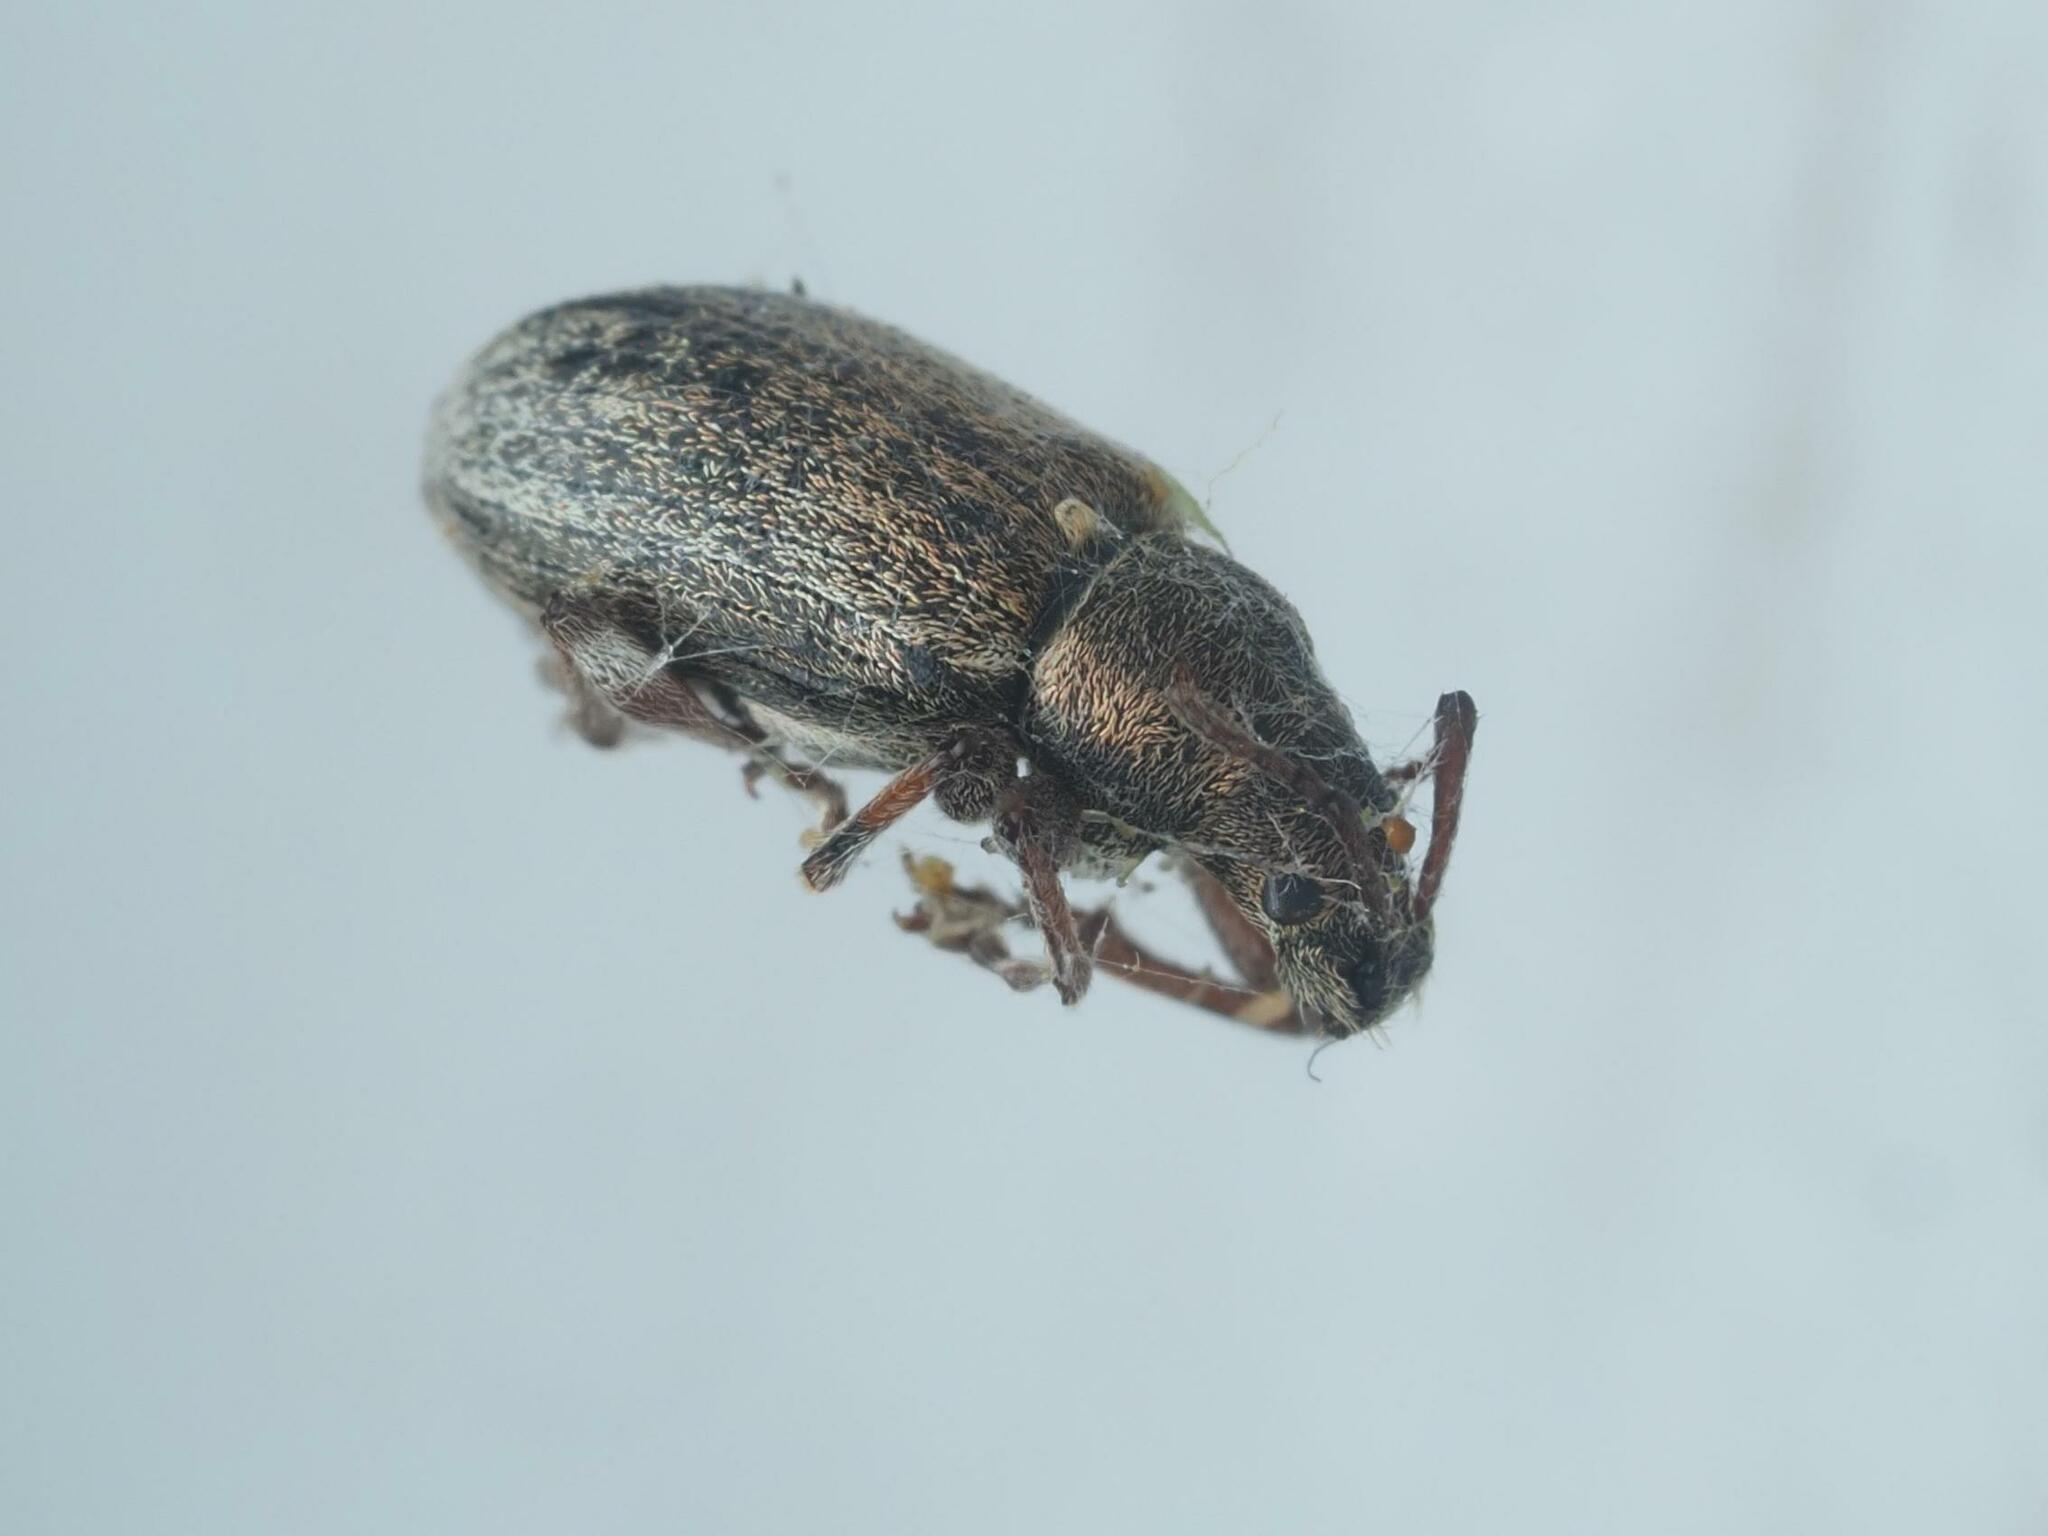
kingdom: Animalia
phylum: Arthropoda
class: Insecta
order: Coleoptera
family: Curculionidae
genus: Phyllobius
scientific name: Phyllobius pyri
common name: Common leaf weevil
